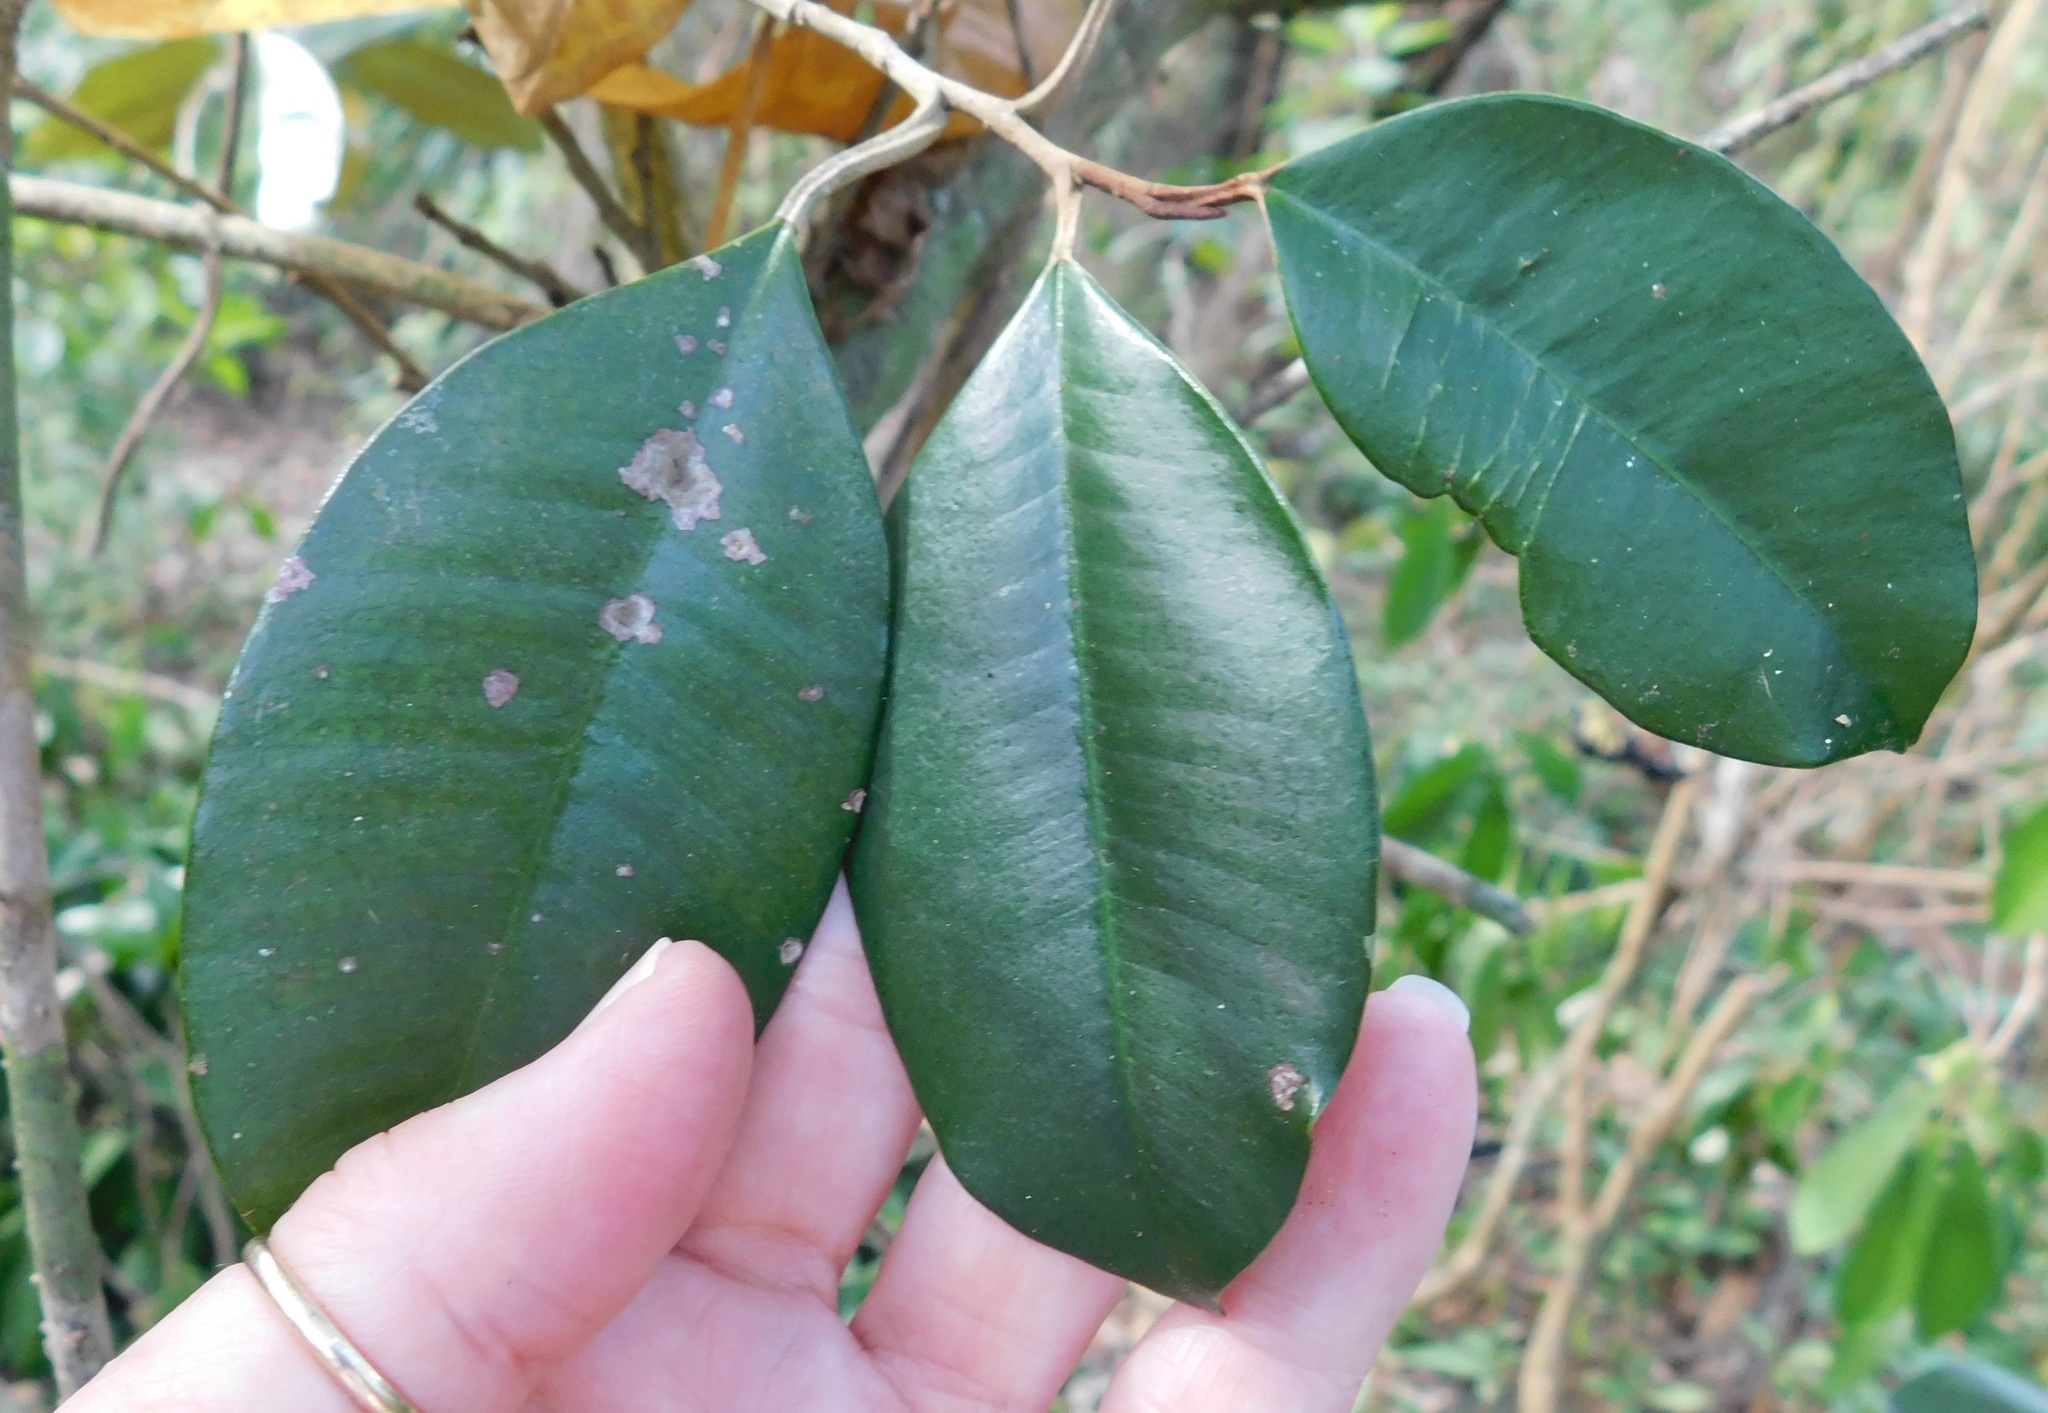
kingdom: Plantae
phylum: Tracheophyta
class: Magnoliopsida
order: Ericales
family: Sapotaceae
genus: Chrysophyllum
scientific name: Chrysophyllum oliviforme
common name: Satinleaf
